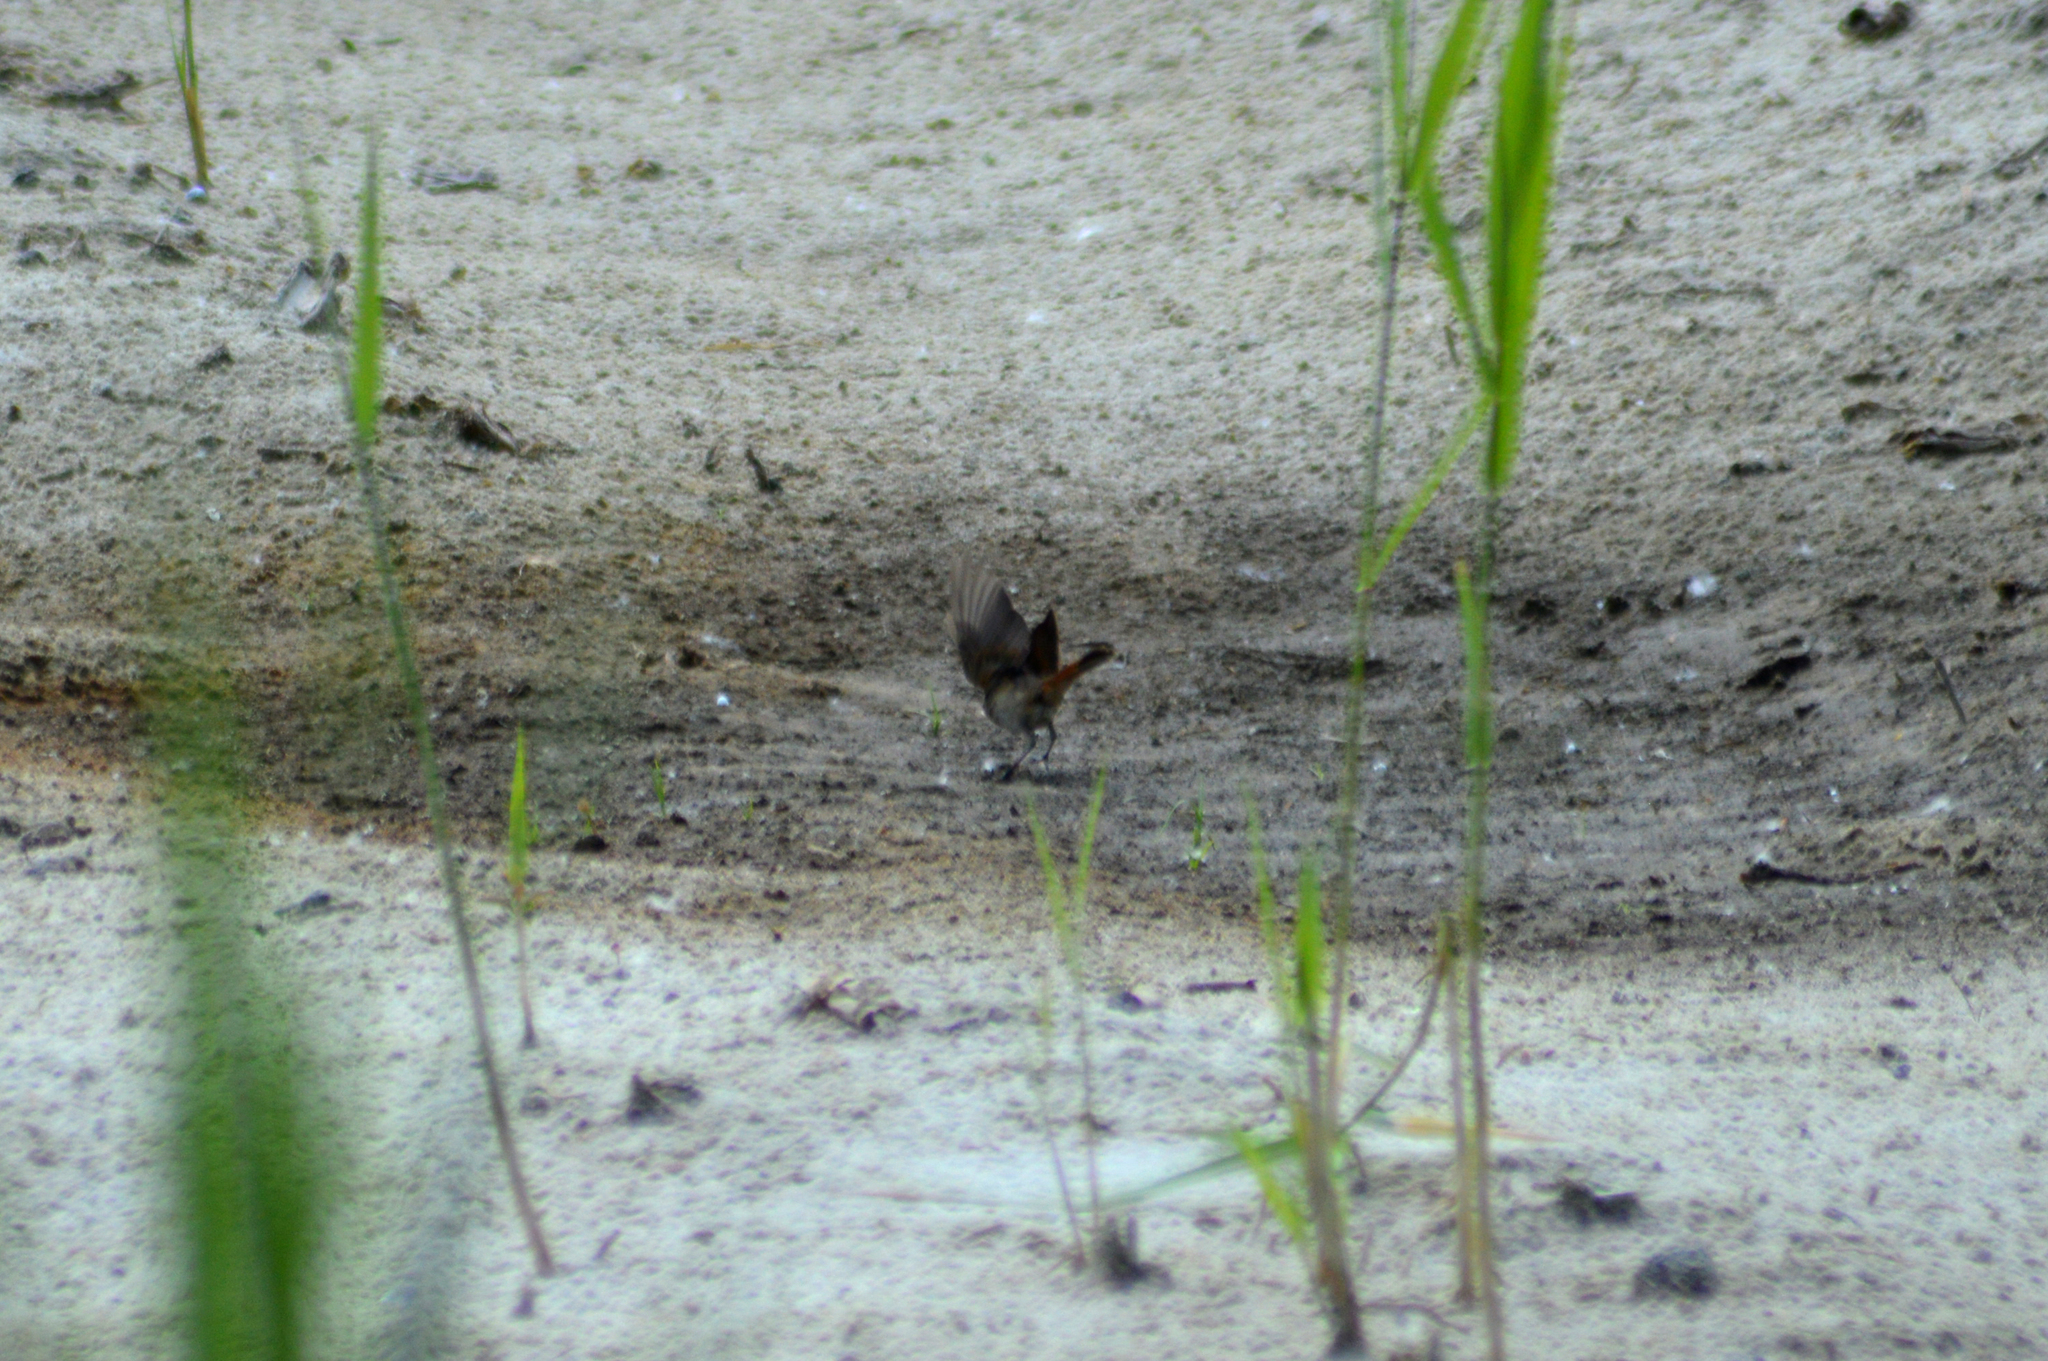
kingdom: Animalia
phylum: Chordata
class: Aves
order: Passeriformes
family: Muscicapidae
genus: Phoenicurus
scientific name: Phoenicurus ochruros
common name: Black redstart
